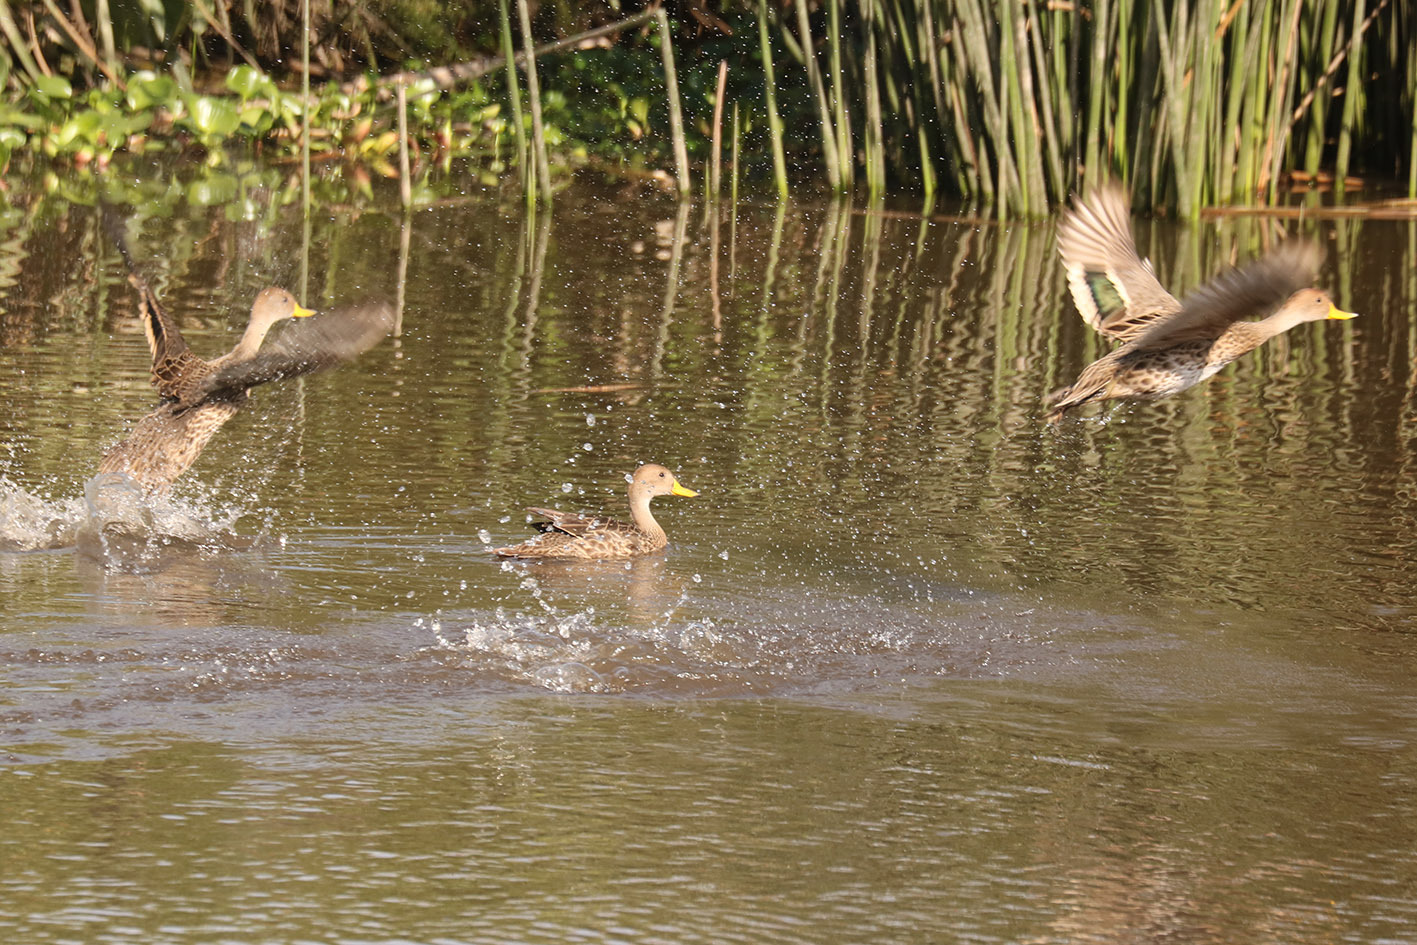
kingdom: Animalia
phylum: Chordata
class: Aves
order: Anseriformes
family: Anatidae
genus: Anas
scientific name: Anas georgica
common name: Yellow-billed pintail
